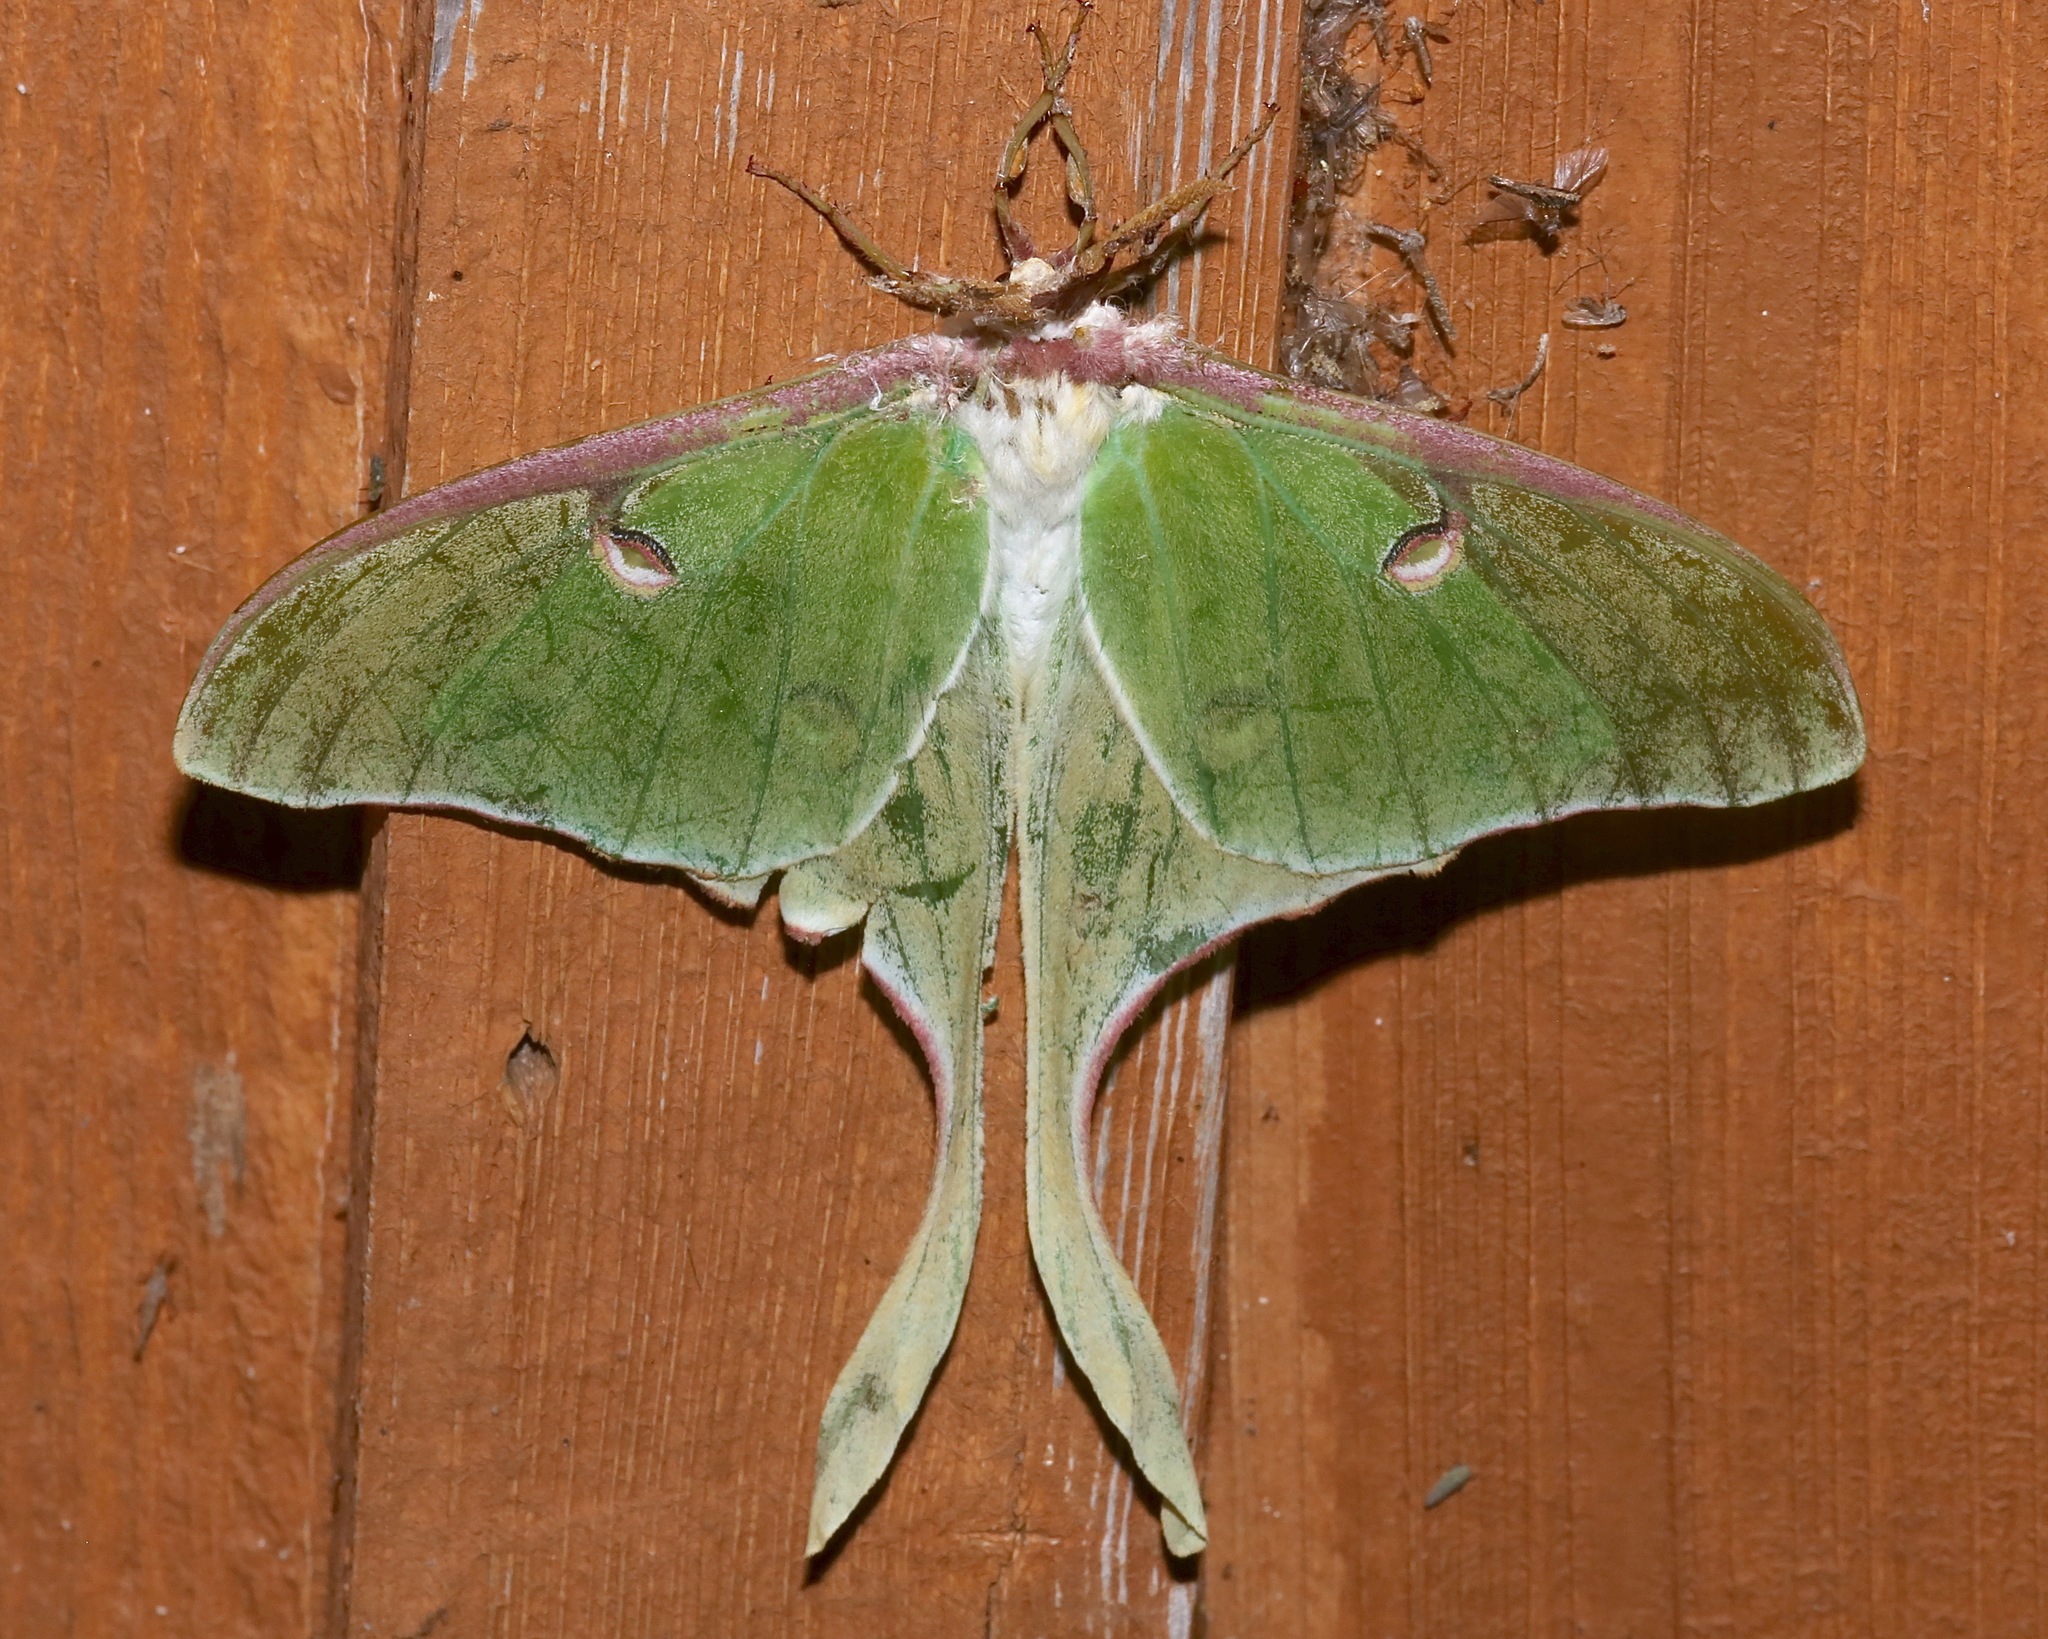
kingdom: Animalia
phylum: Arthropoda
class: Insecta
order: Lepidoptera
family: Saturniidae
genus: Actias
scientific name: Actias luna
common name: Luna moth
